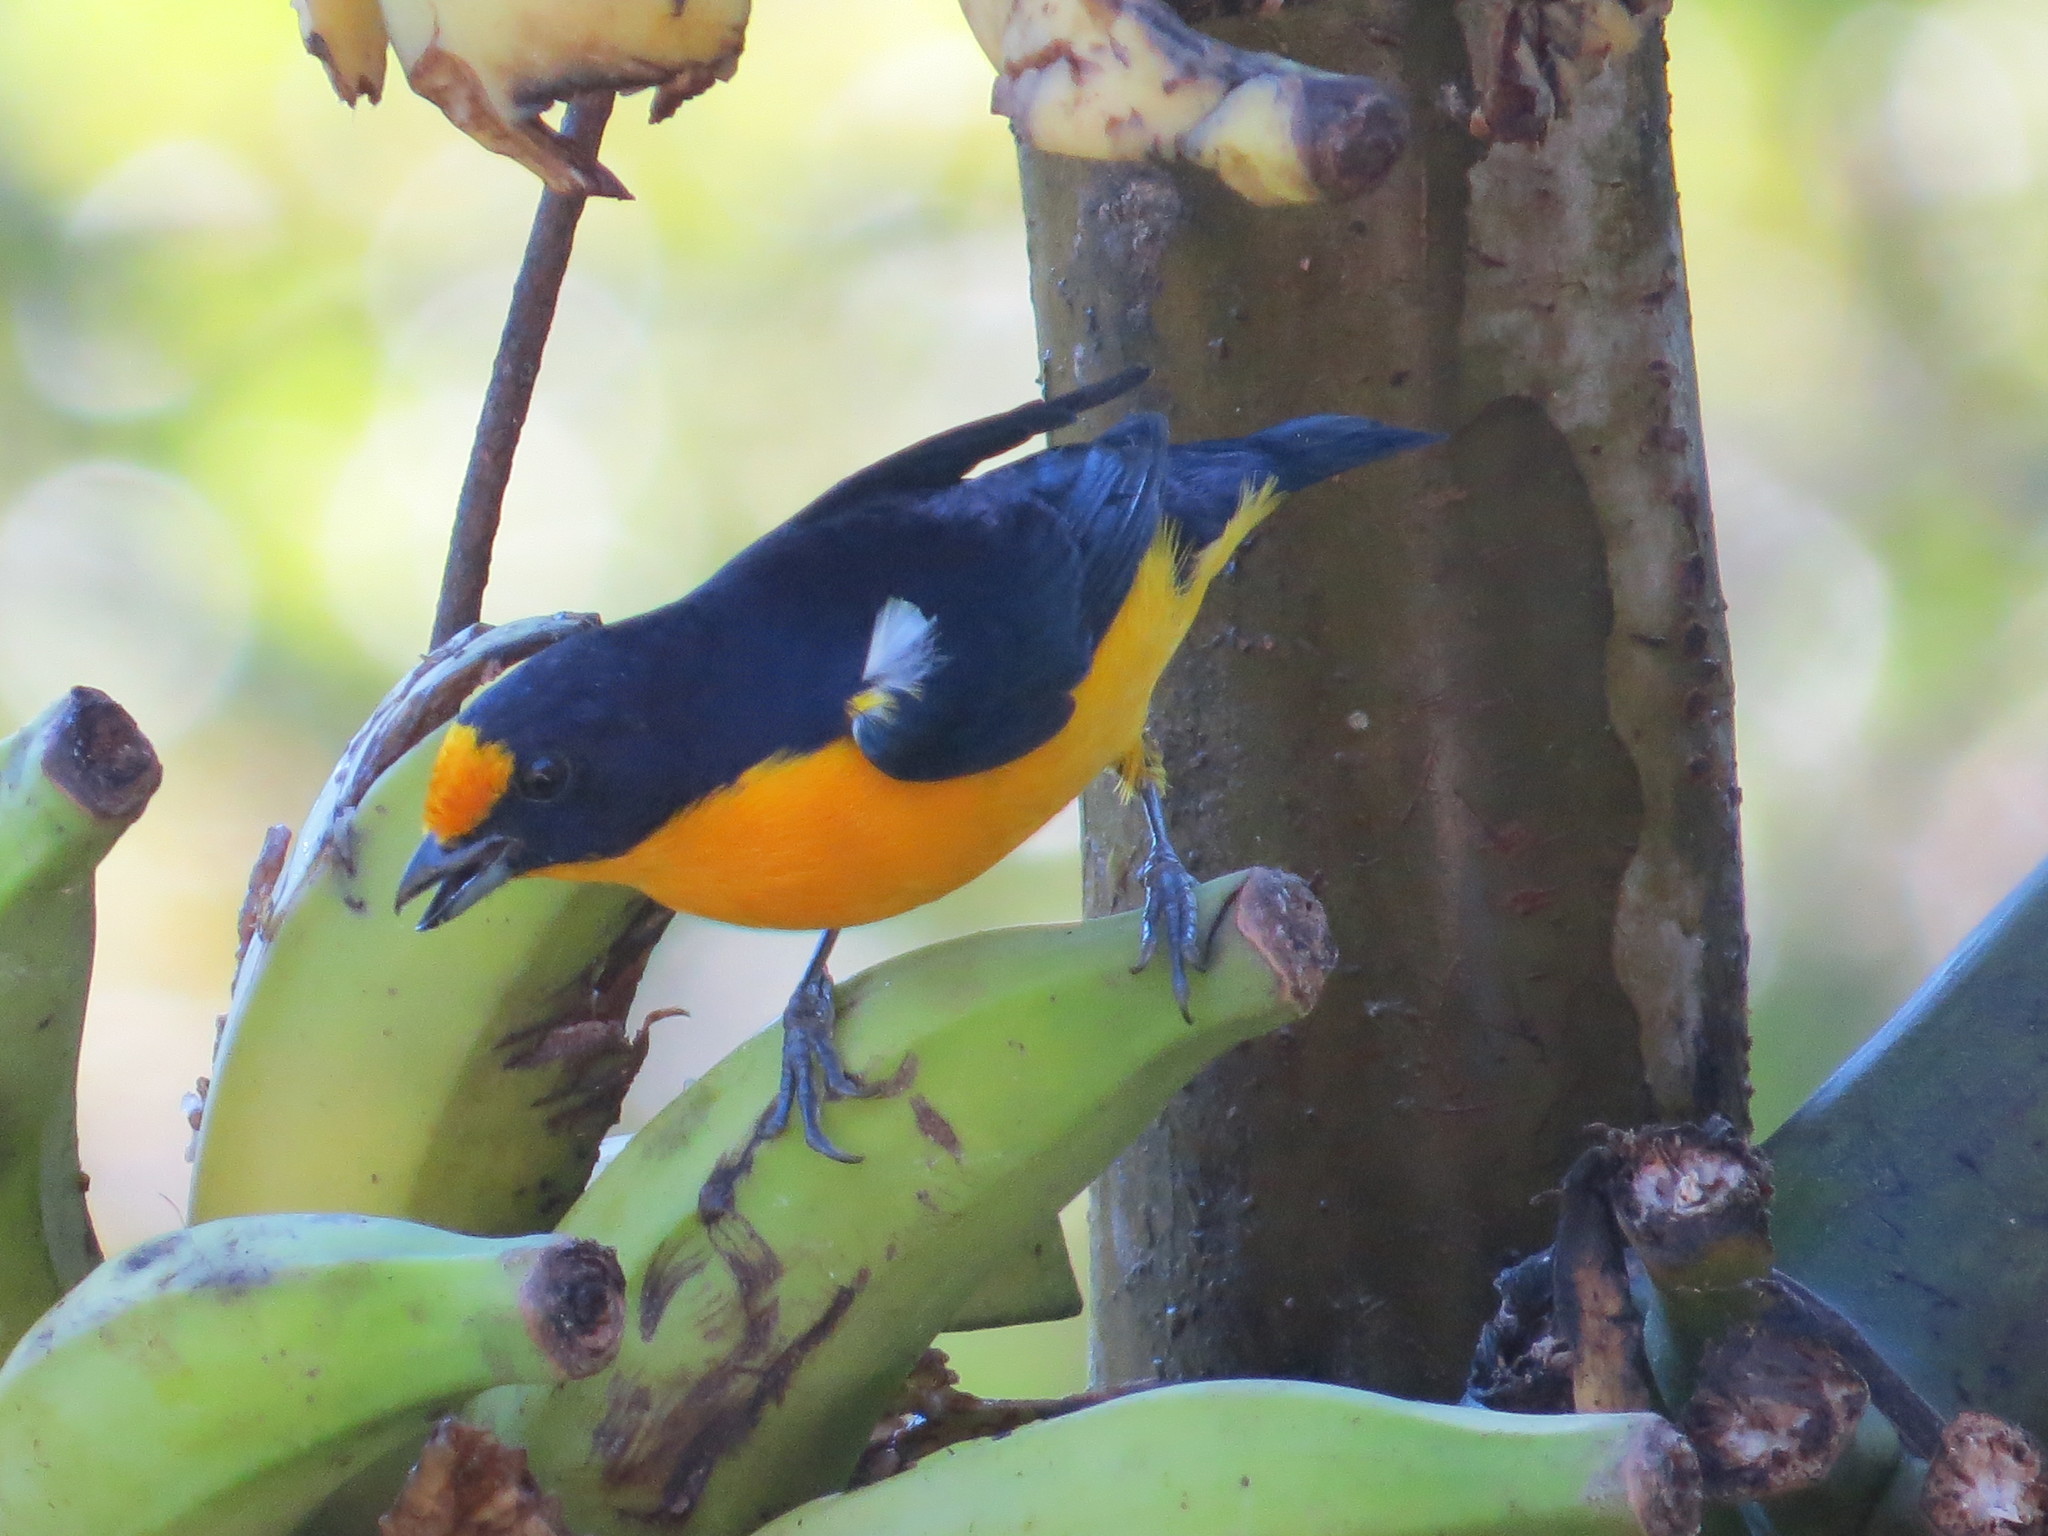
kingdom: Animalia
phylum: Chordata
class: Aves
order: Passeriformes
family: Fringillidae
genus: Euphonia
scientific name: Euphonia violacea
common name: Violaceous euphonia
